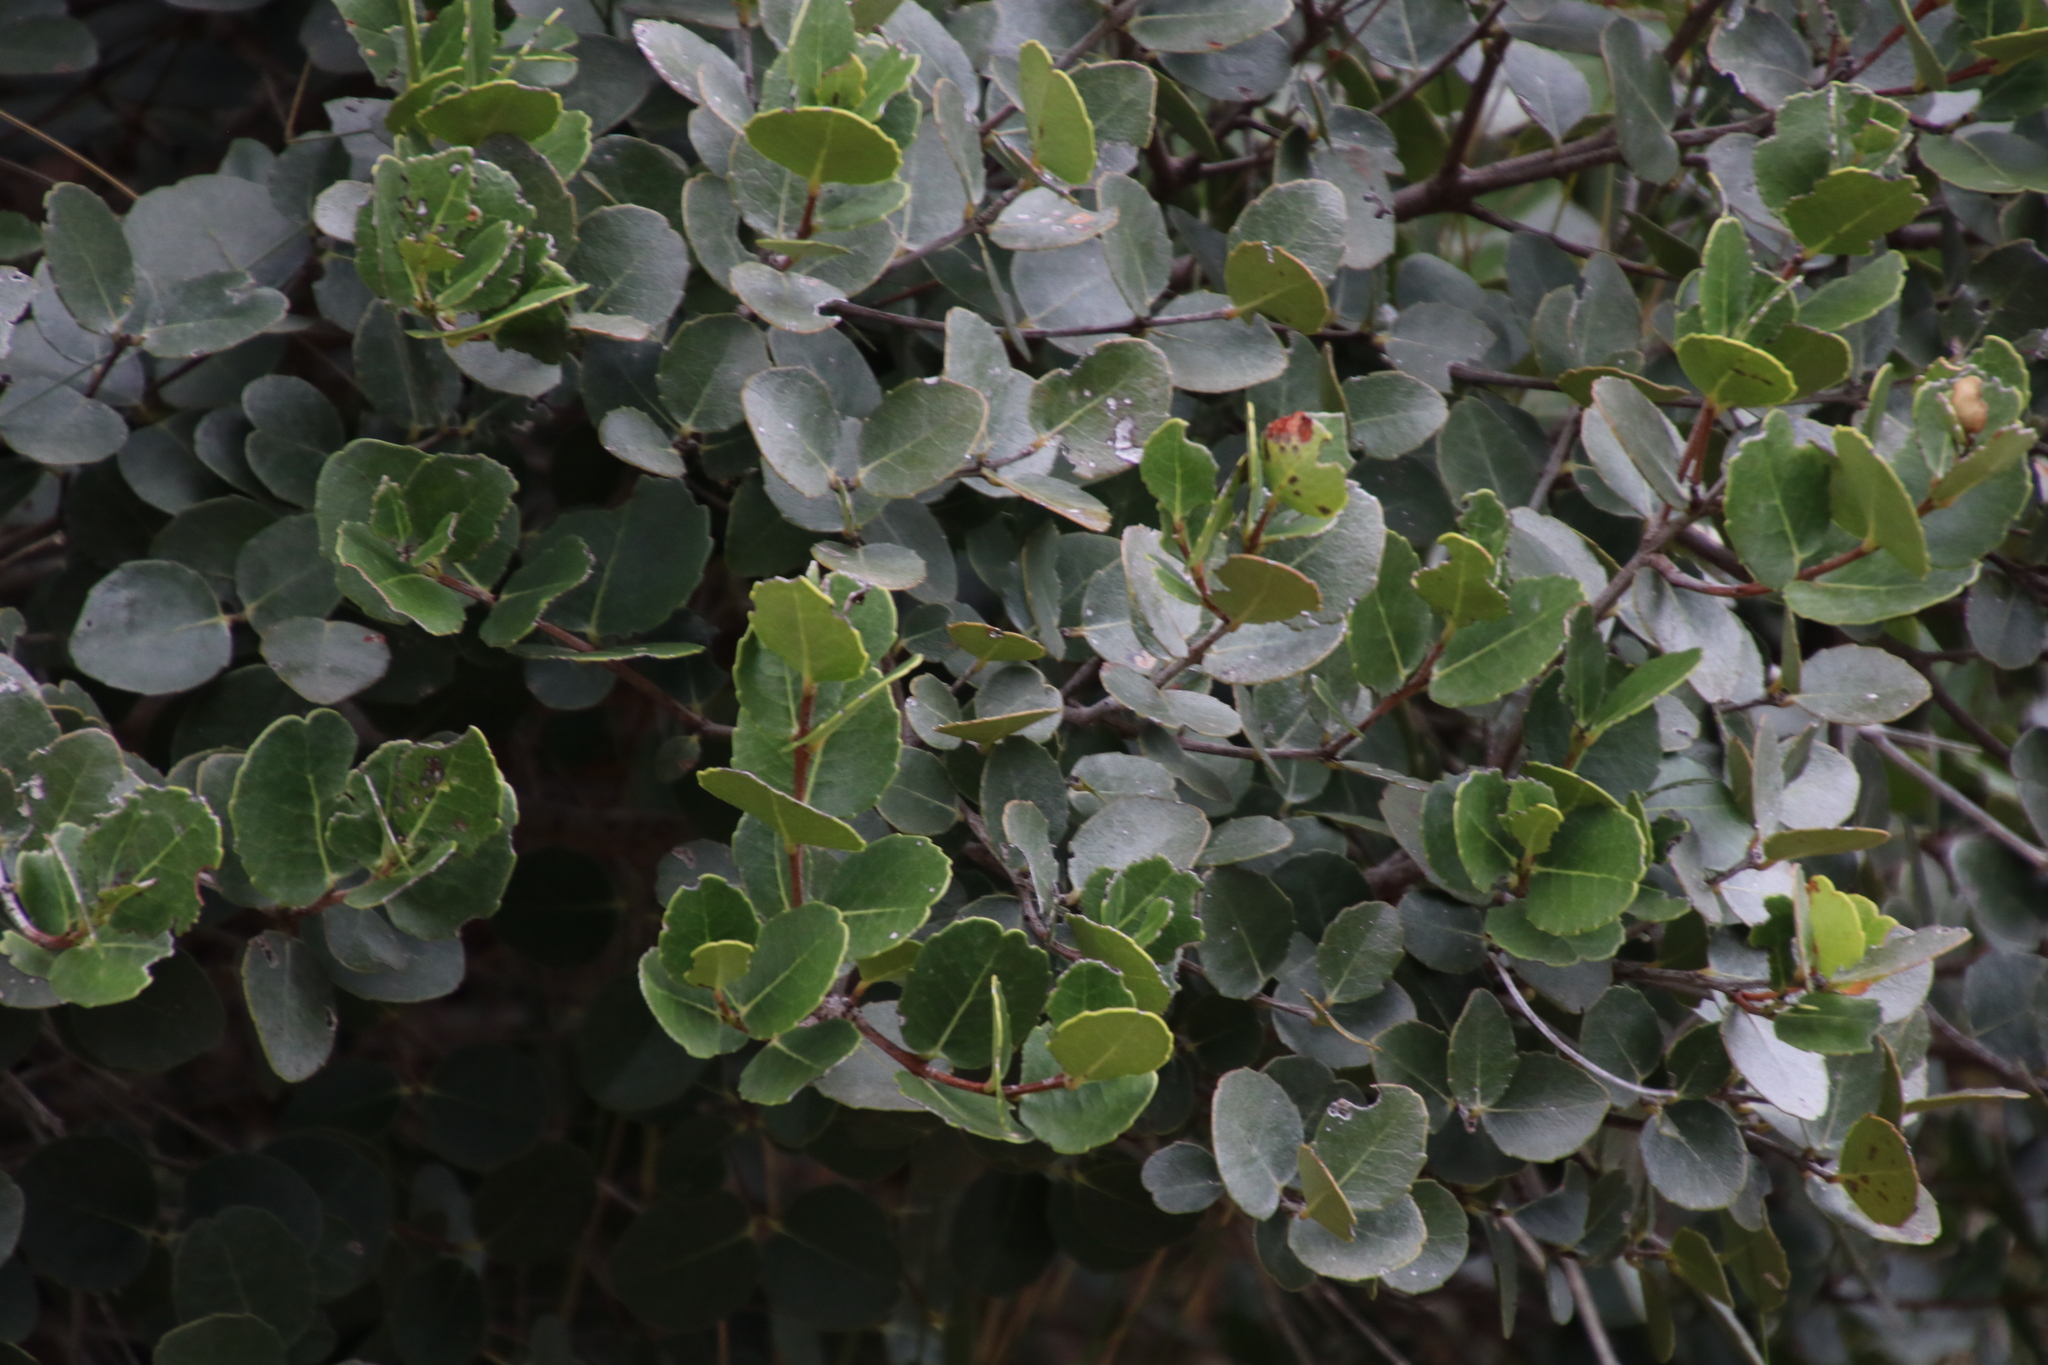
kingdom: Plantae
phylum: Tracheophyta
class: Magnoliopsida
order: Celastrales
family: Celastraceae
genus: Cassine
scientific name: Cassine peragua
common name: Cape saffron
